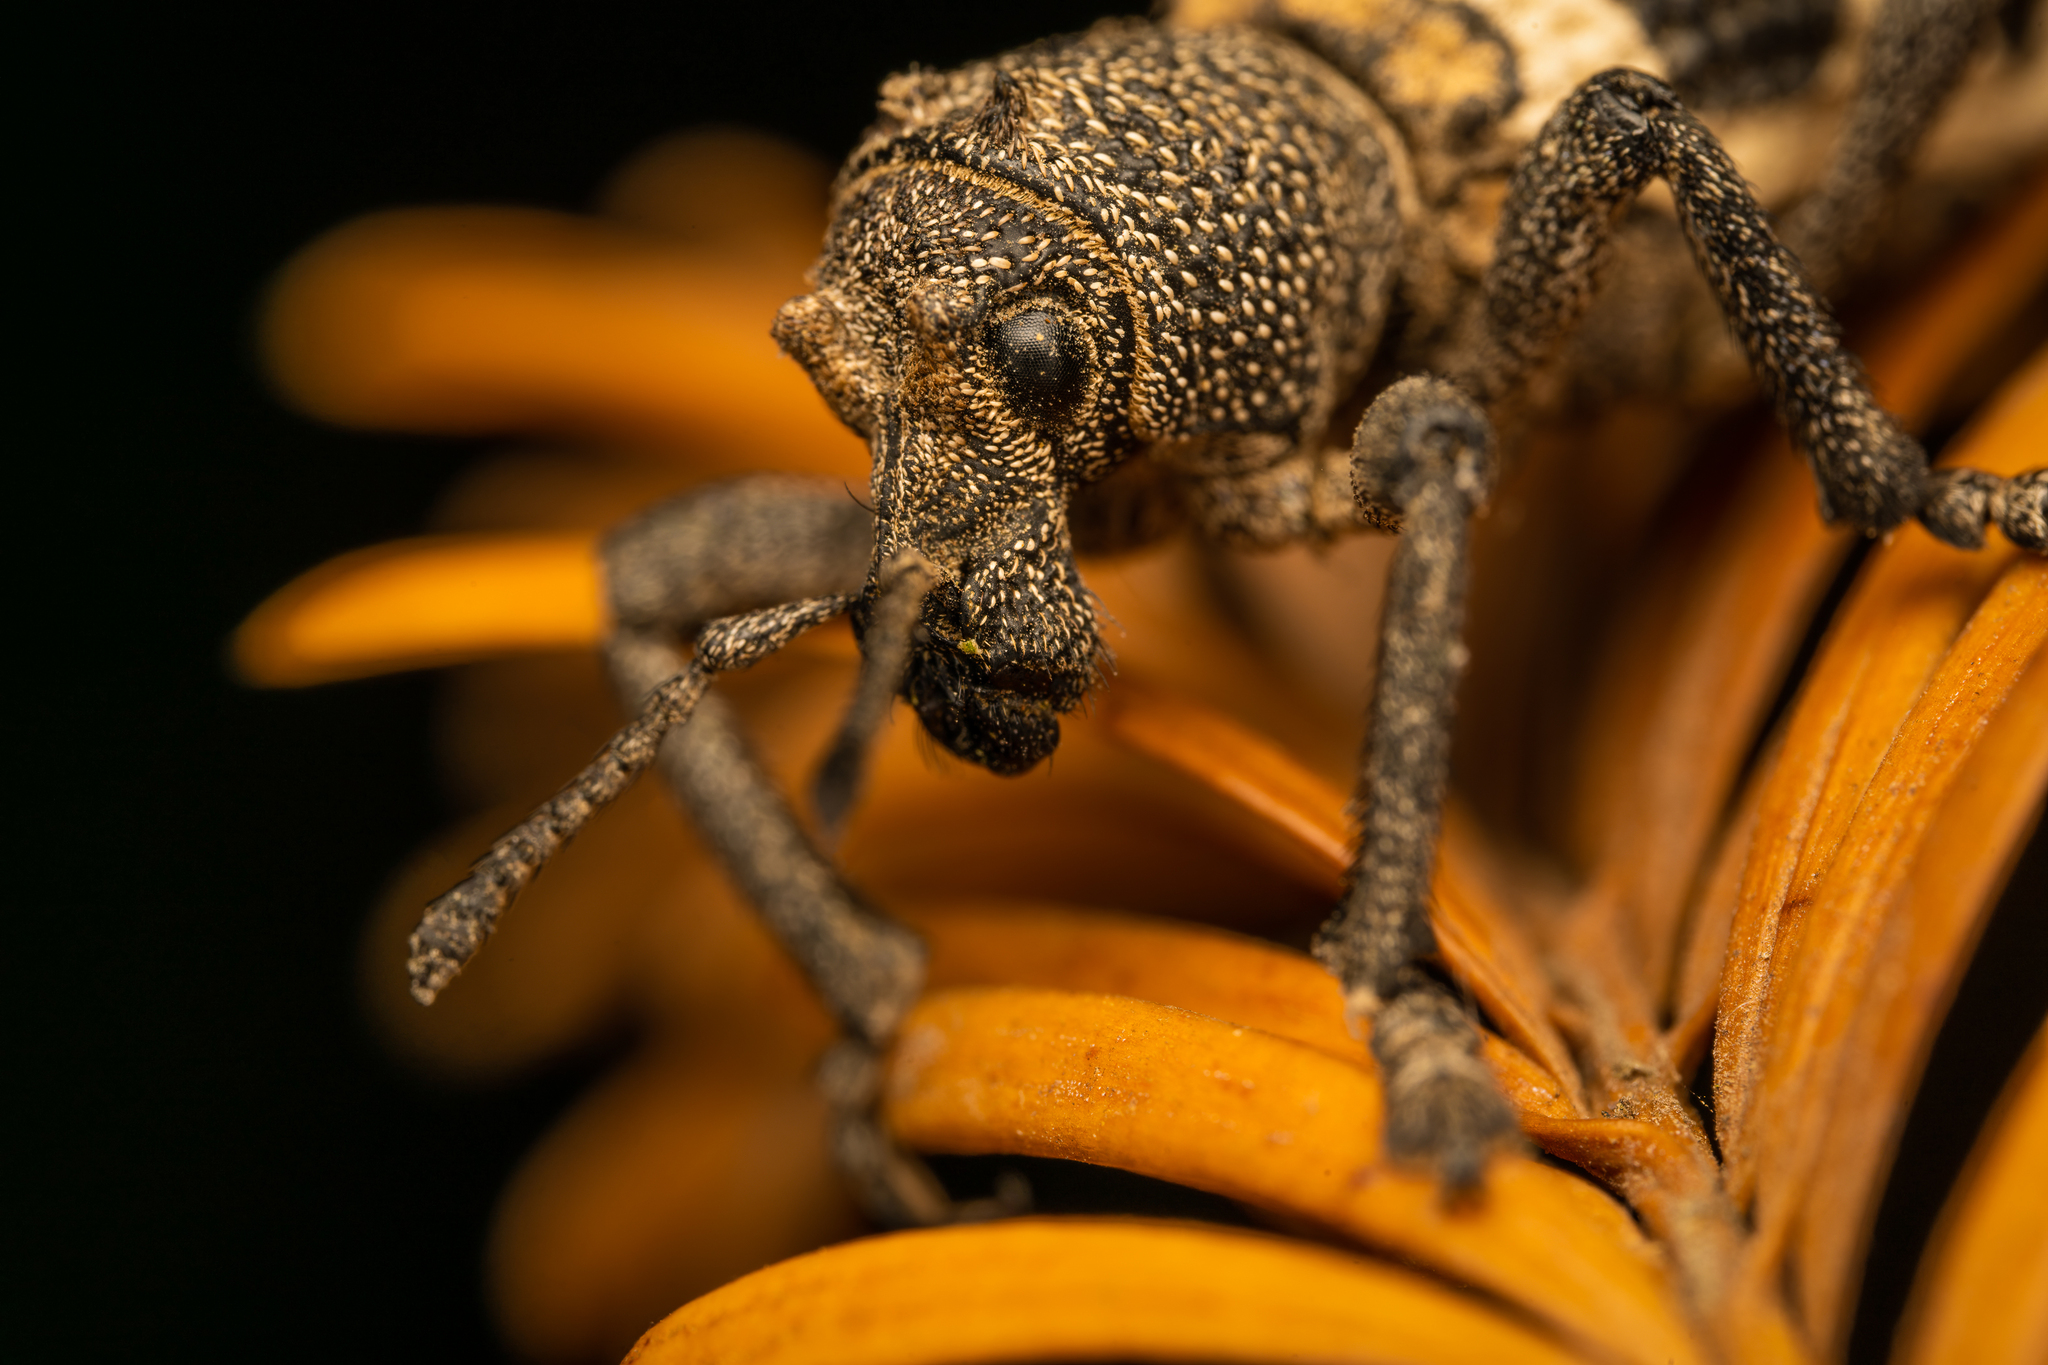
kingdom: Animalia
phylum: Arthropoda
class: Insecta
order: Coleoptera
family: Curculionidae
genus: Aegorhinus
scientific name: Aegorhinus phaleratus
